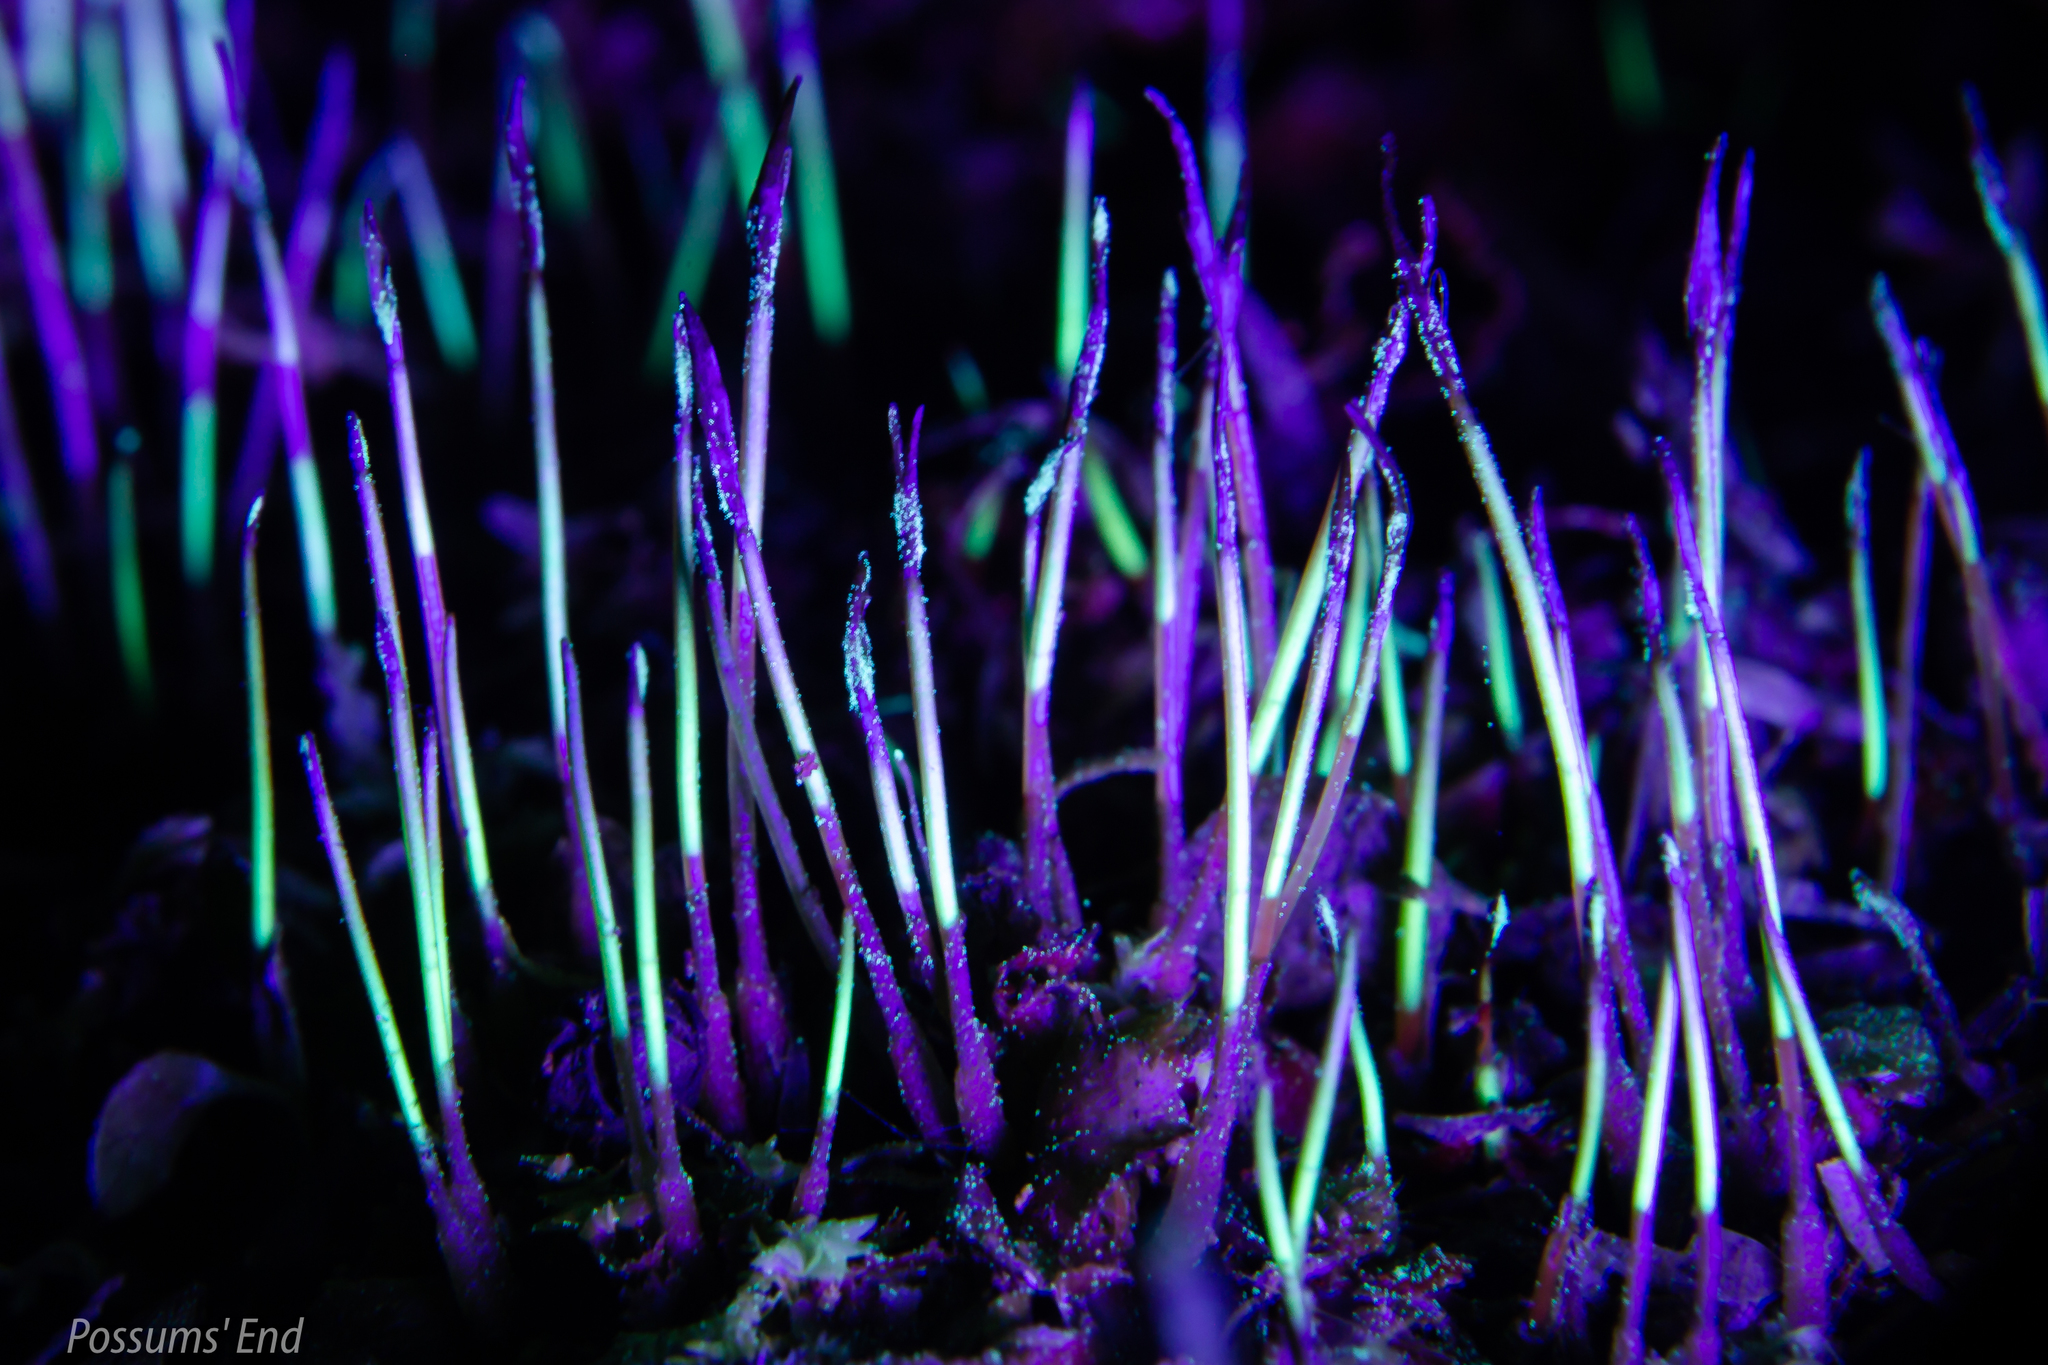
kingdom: Plantae
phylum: Anthocerotophyta
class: Anthocerotopsida
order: Dendrocerotales
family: Dendrocerotaceae
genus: Megaceros
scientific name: Megaceros flagellaris
